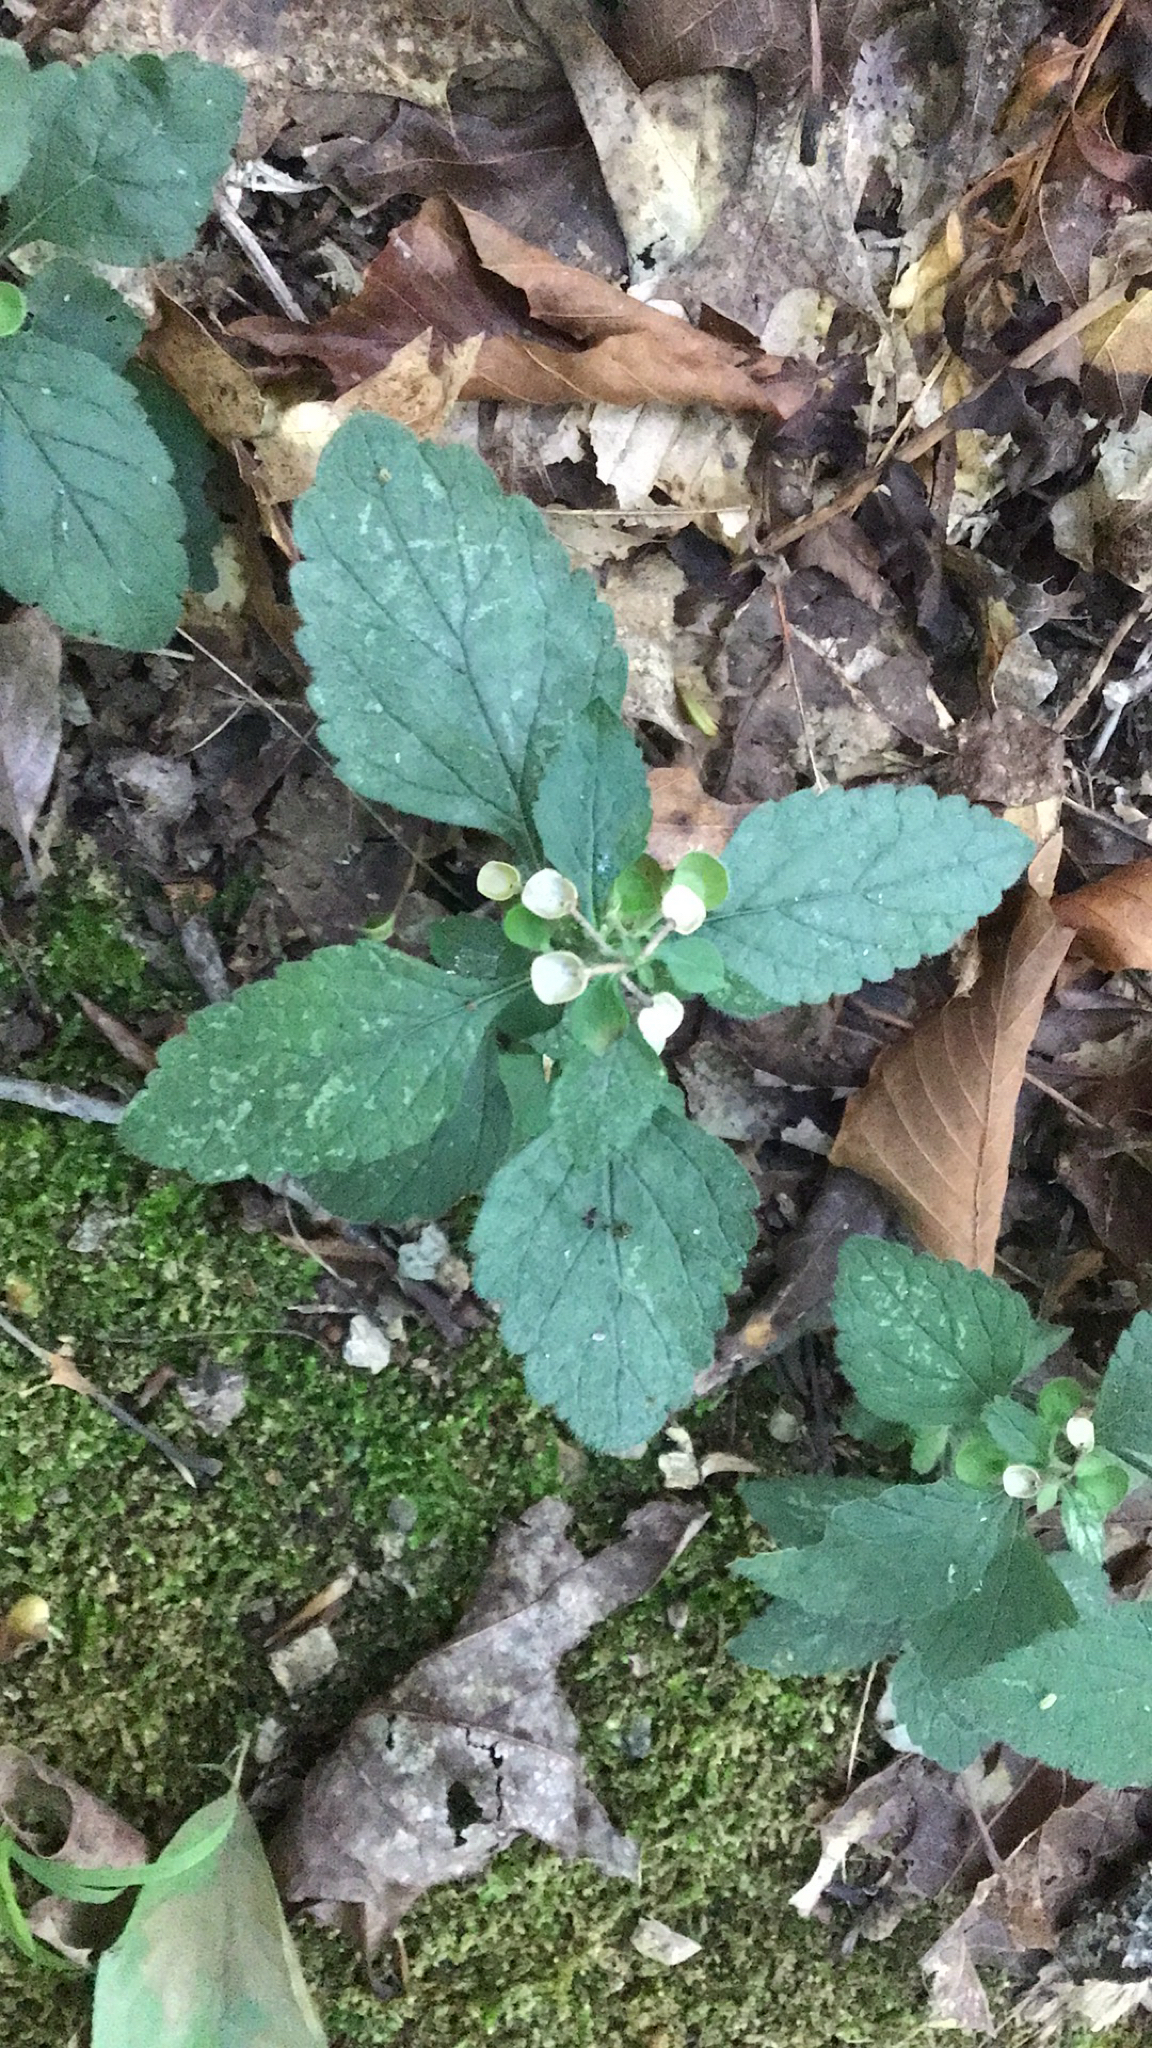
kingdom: Plantae
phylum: Tracheophyta
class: Magnoliopsida
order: Lamiales
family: Lamiaceae
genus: Scutellaria
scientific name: Scutellaria elliptica
